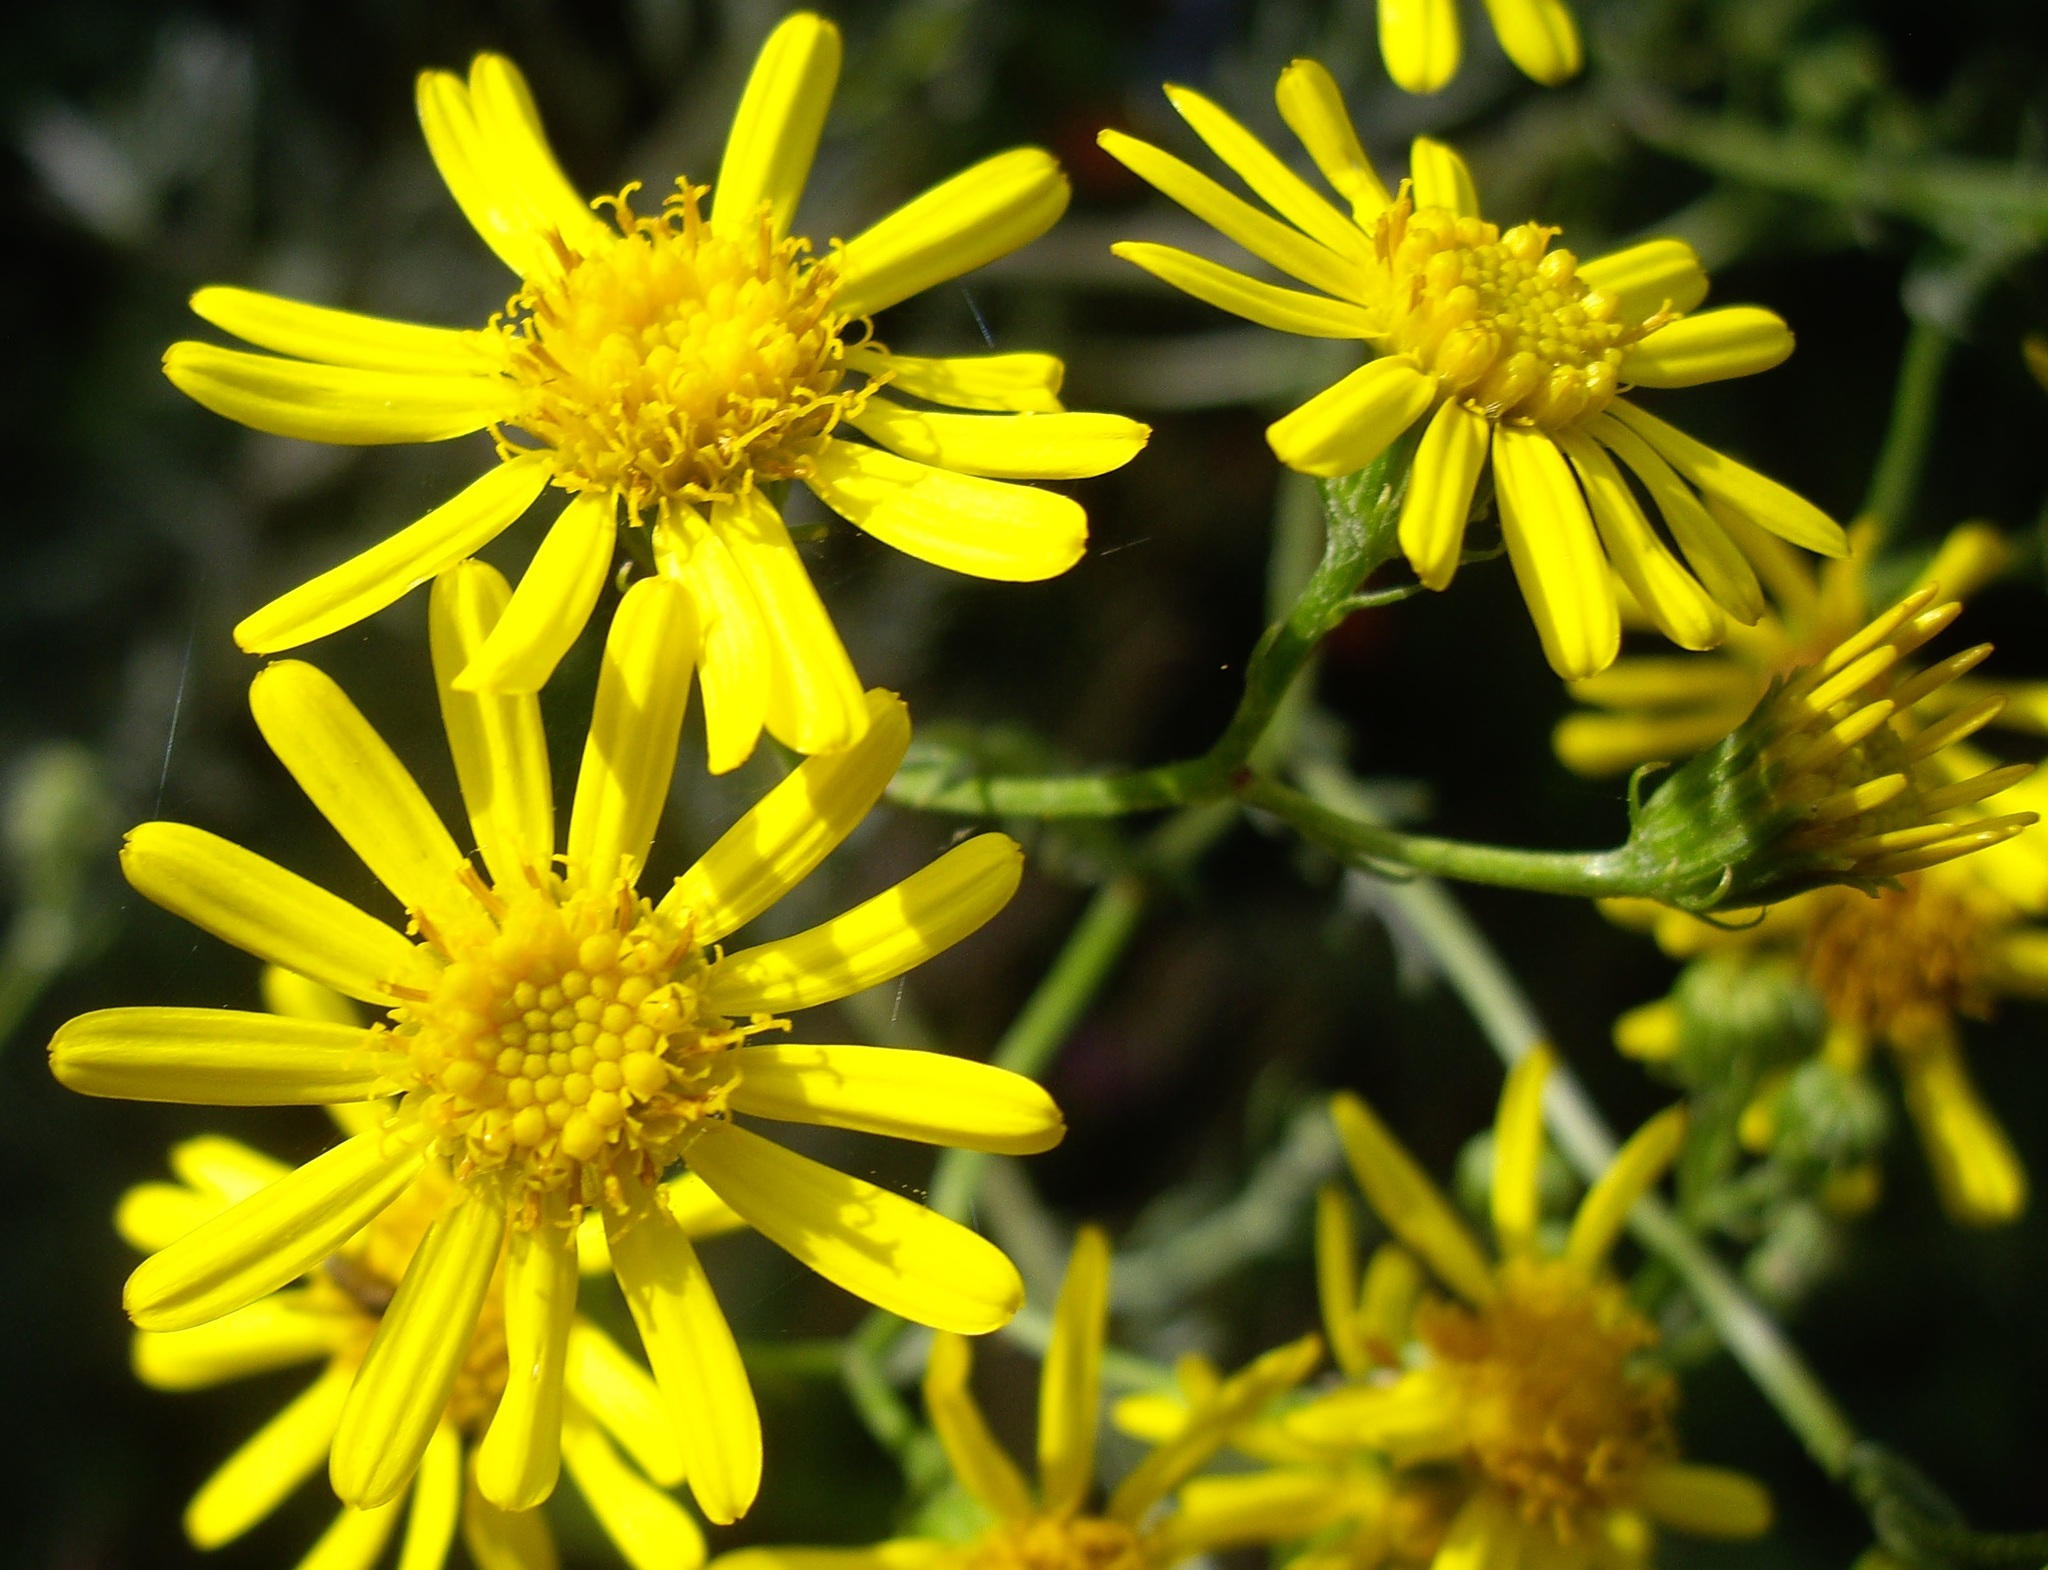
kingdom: Plantae
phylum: Tracheophyta
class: Magnoliopsida
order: Asterales
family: Asteraceae
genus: Jacobaea
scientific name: Jacobaea erucifolia
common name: Hoary ragwort
